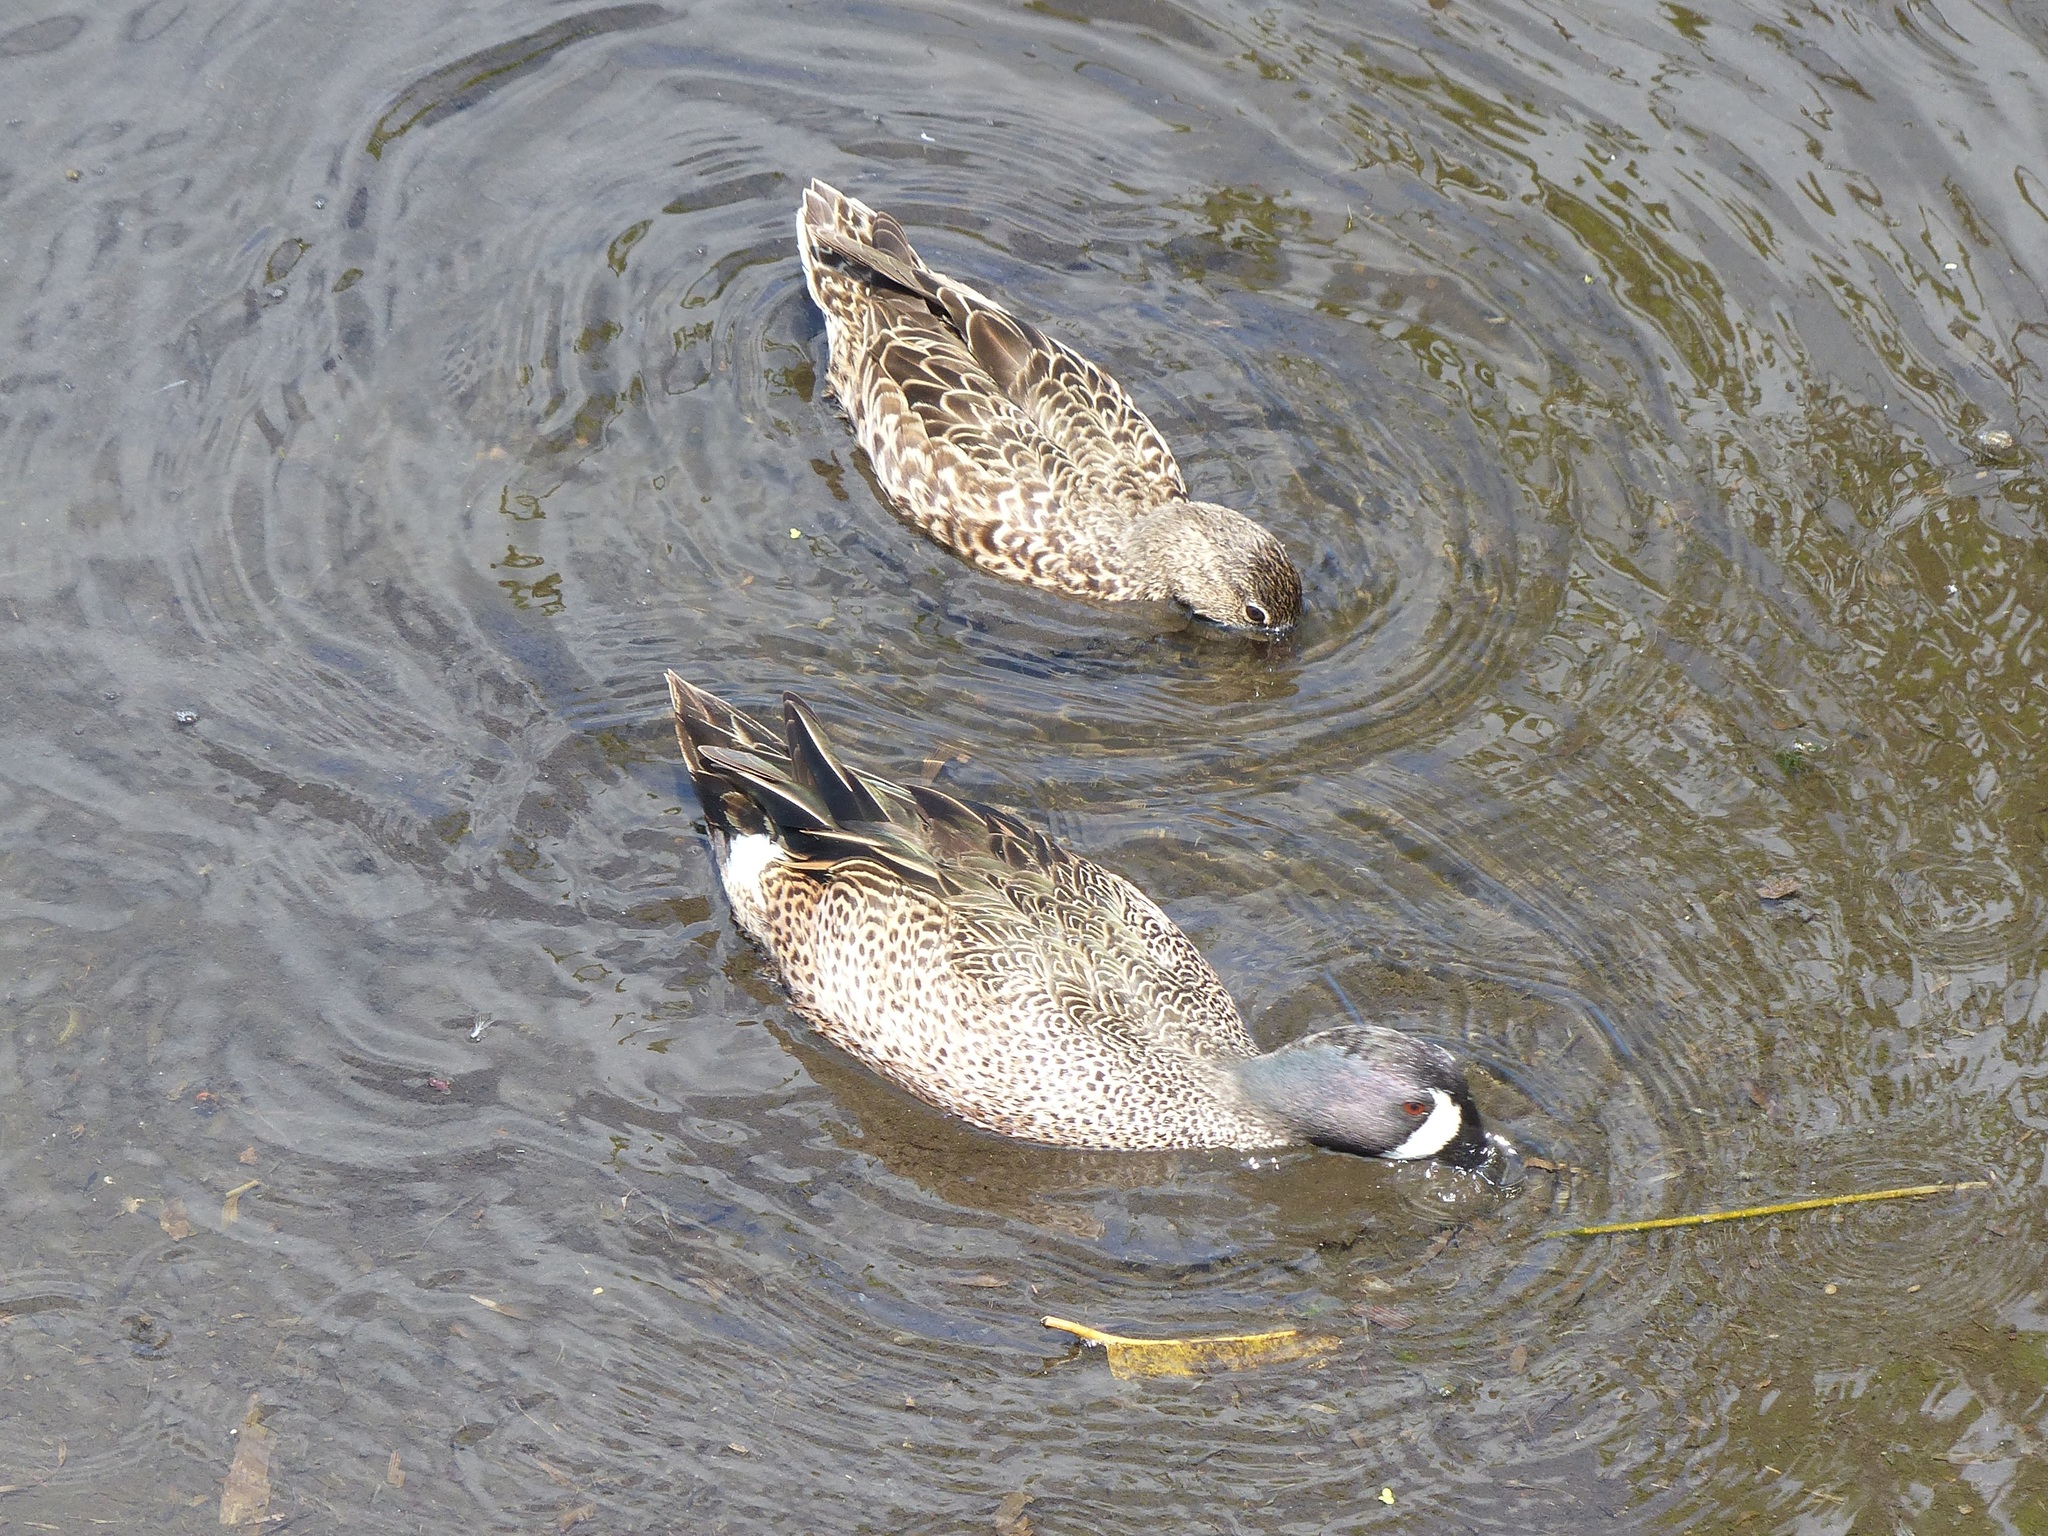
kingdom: Animalia
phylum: Chordata
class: Aves
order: Anseriformes
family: Anatidae
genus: Spatula
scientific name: Spatula discors
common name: Blue-winged teal
